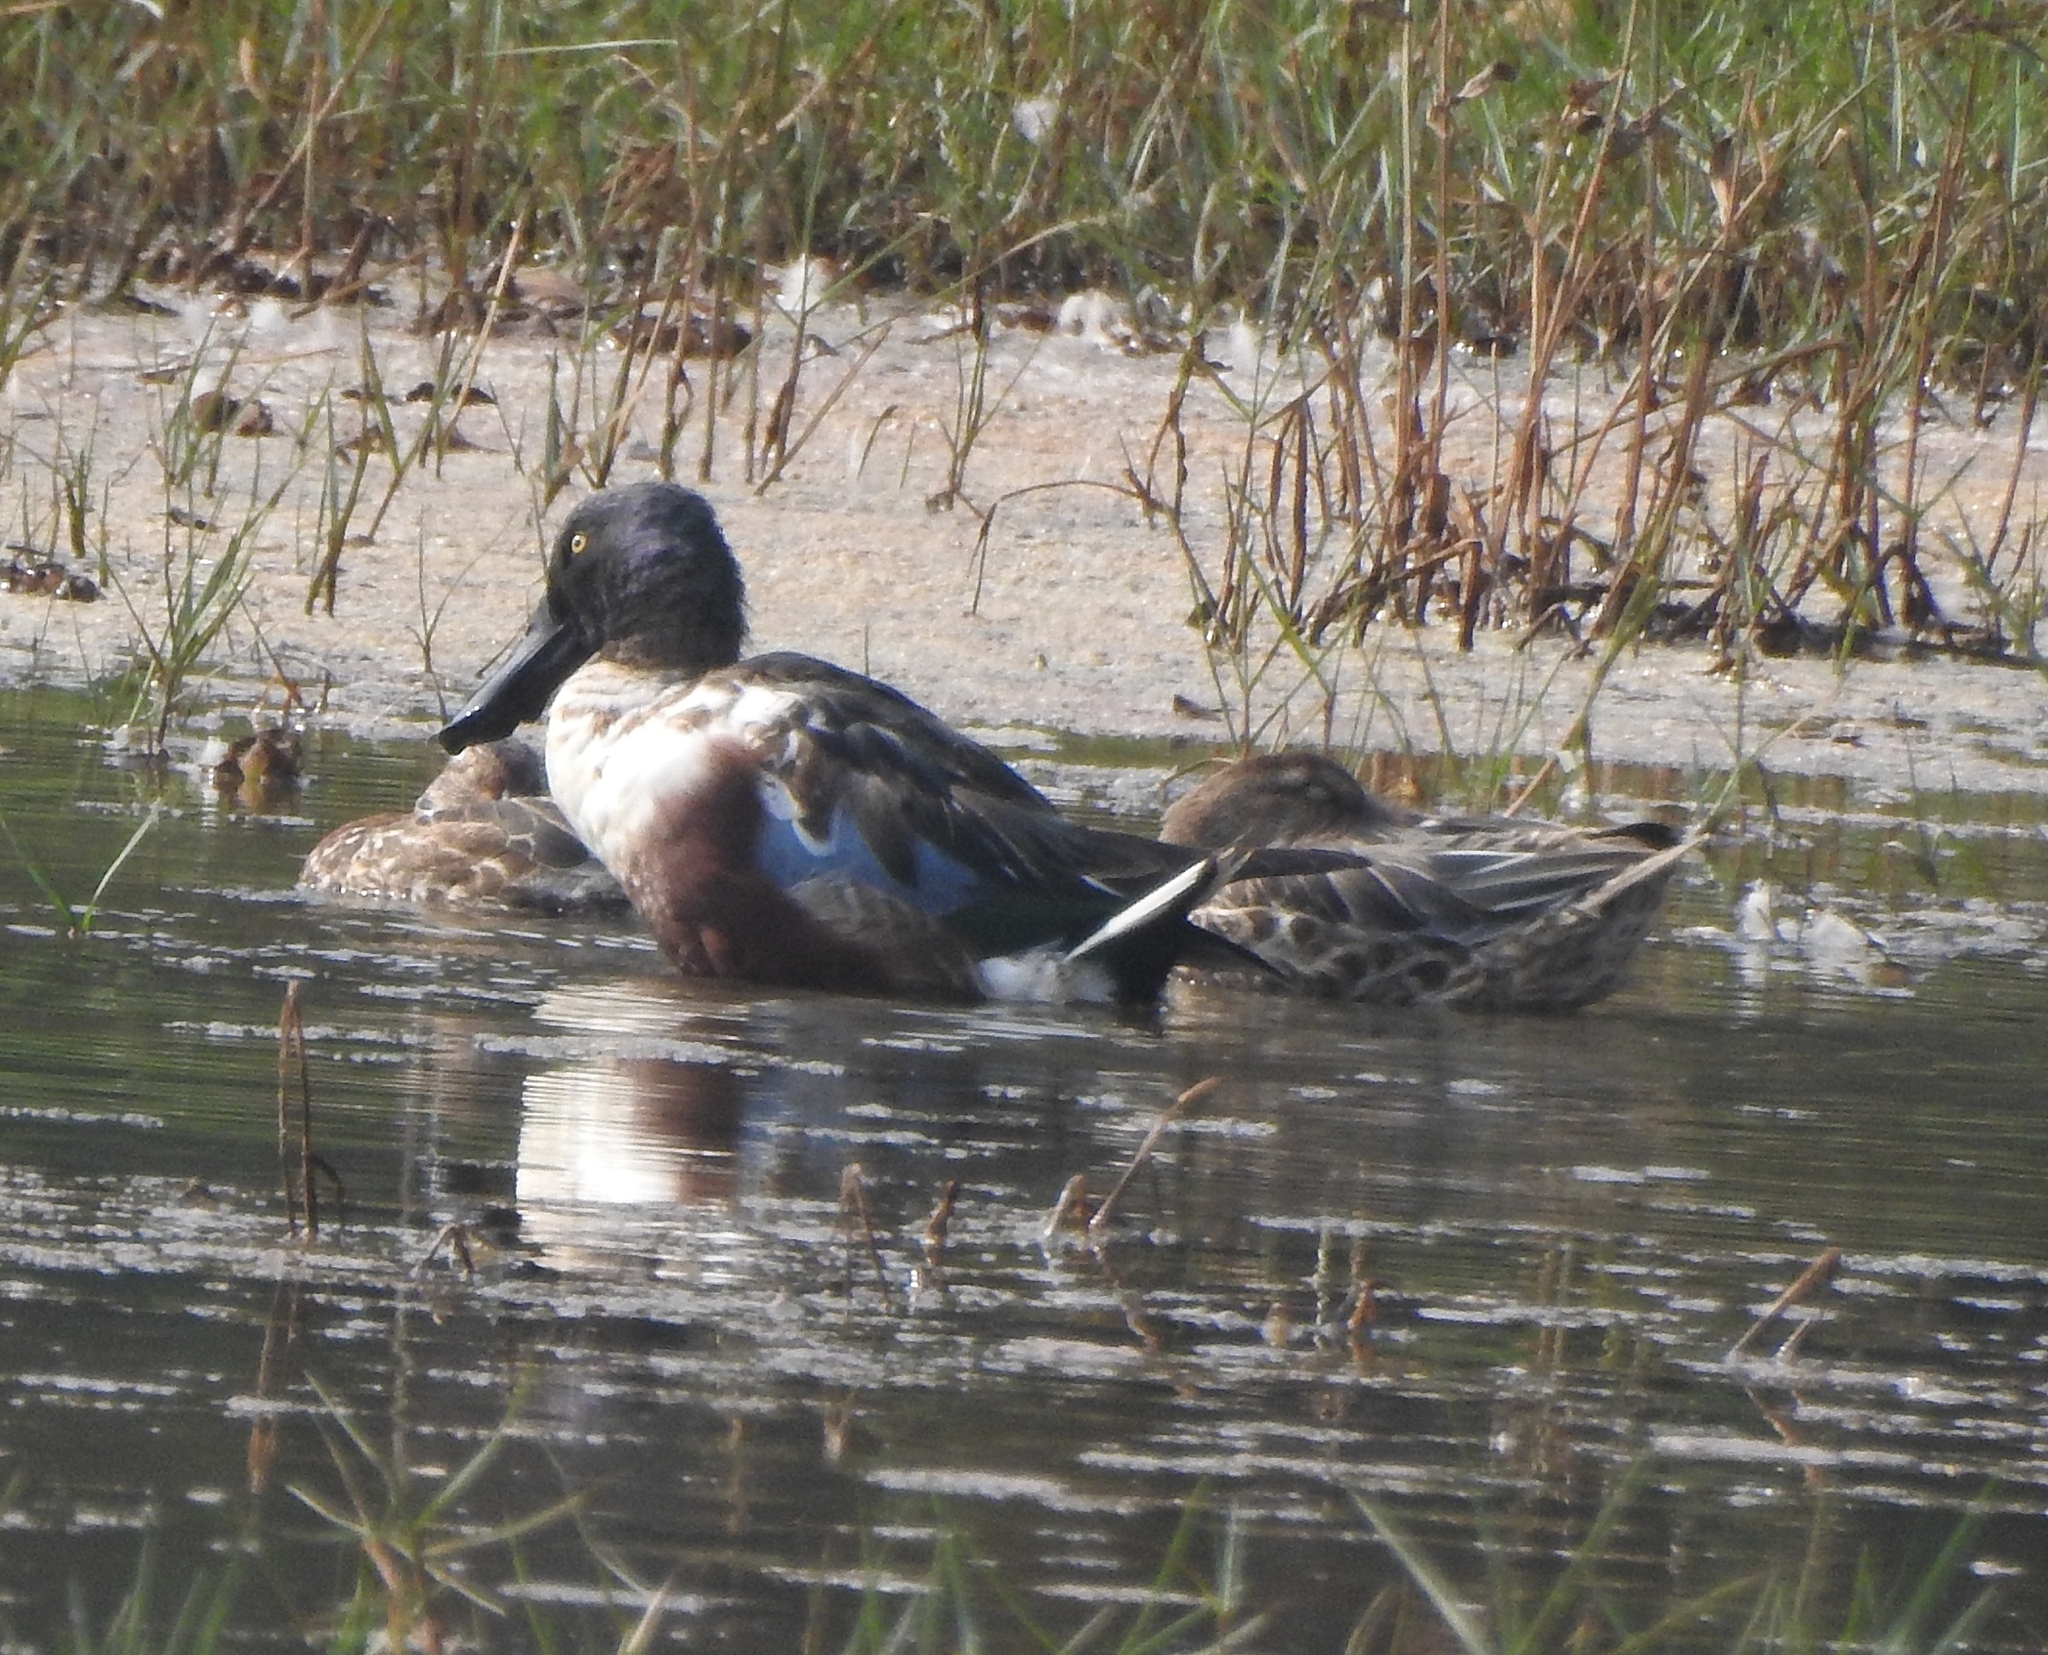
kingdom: Animalia
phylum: Chordata
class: Aves
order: Anseriformes
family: Anatidae
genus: Spatula
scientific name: Spatula clypeata
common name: Northern shoveler
